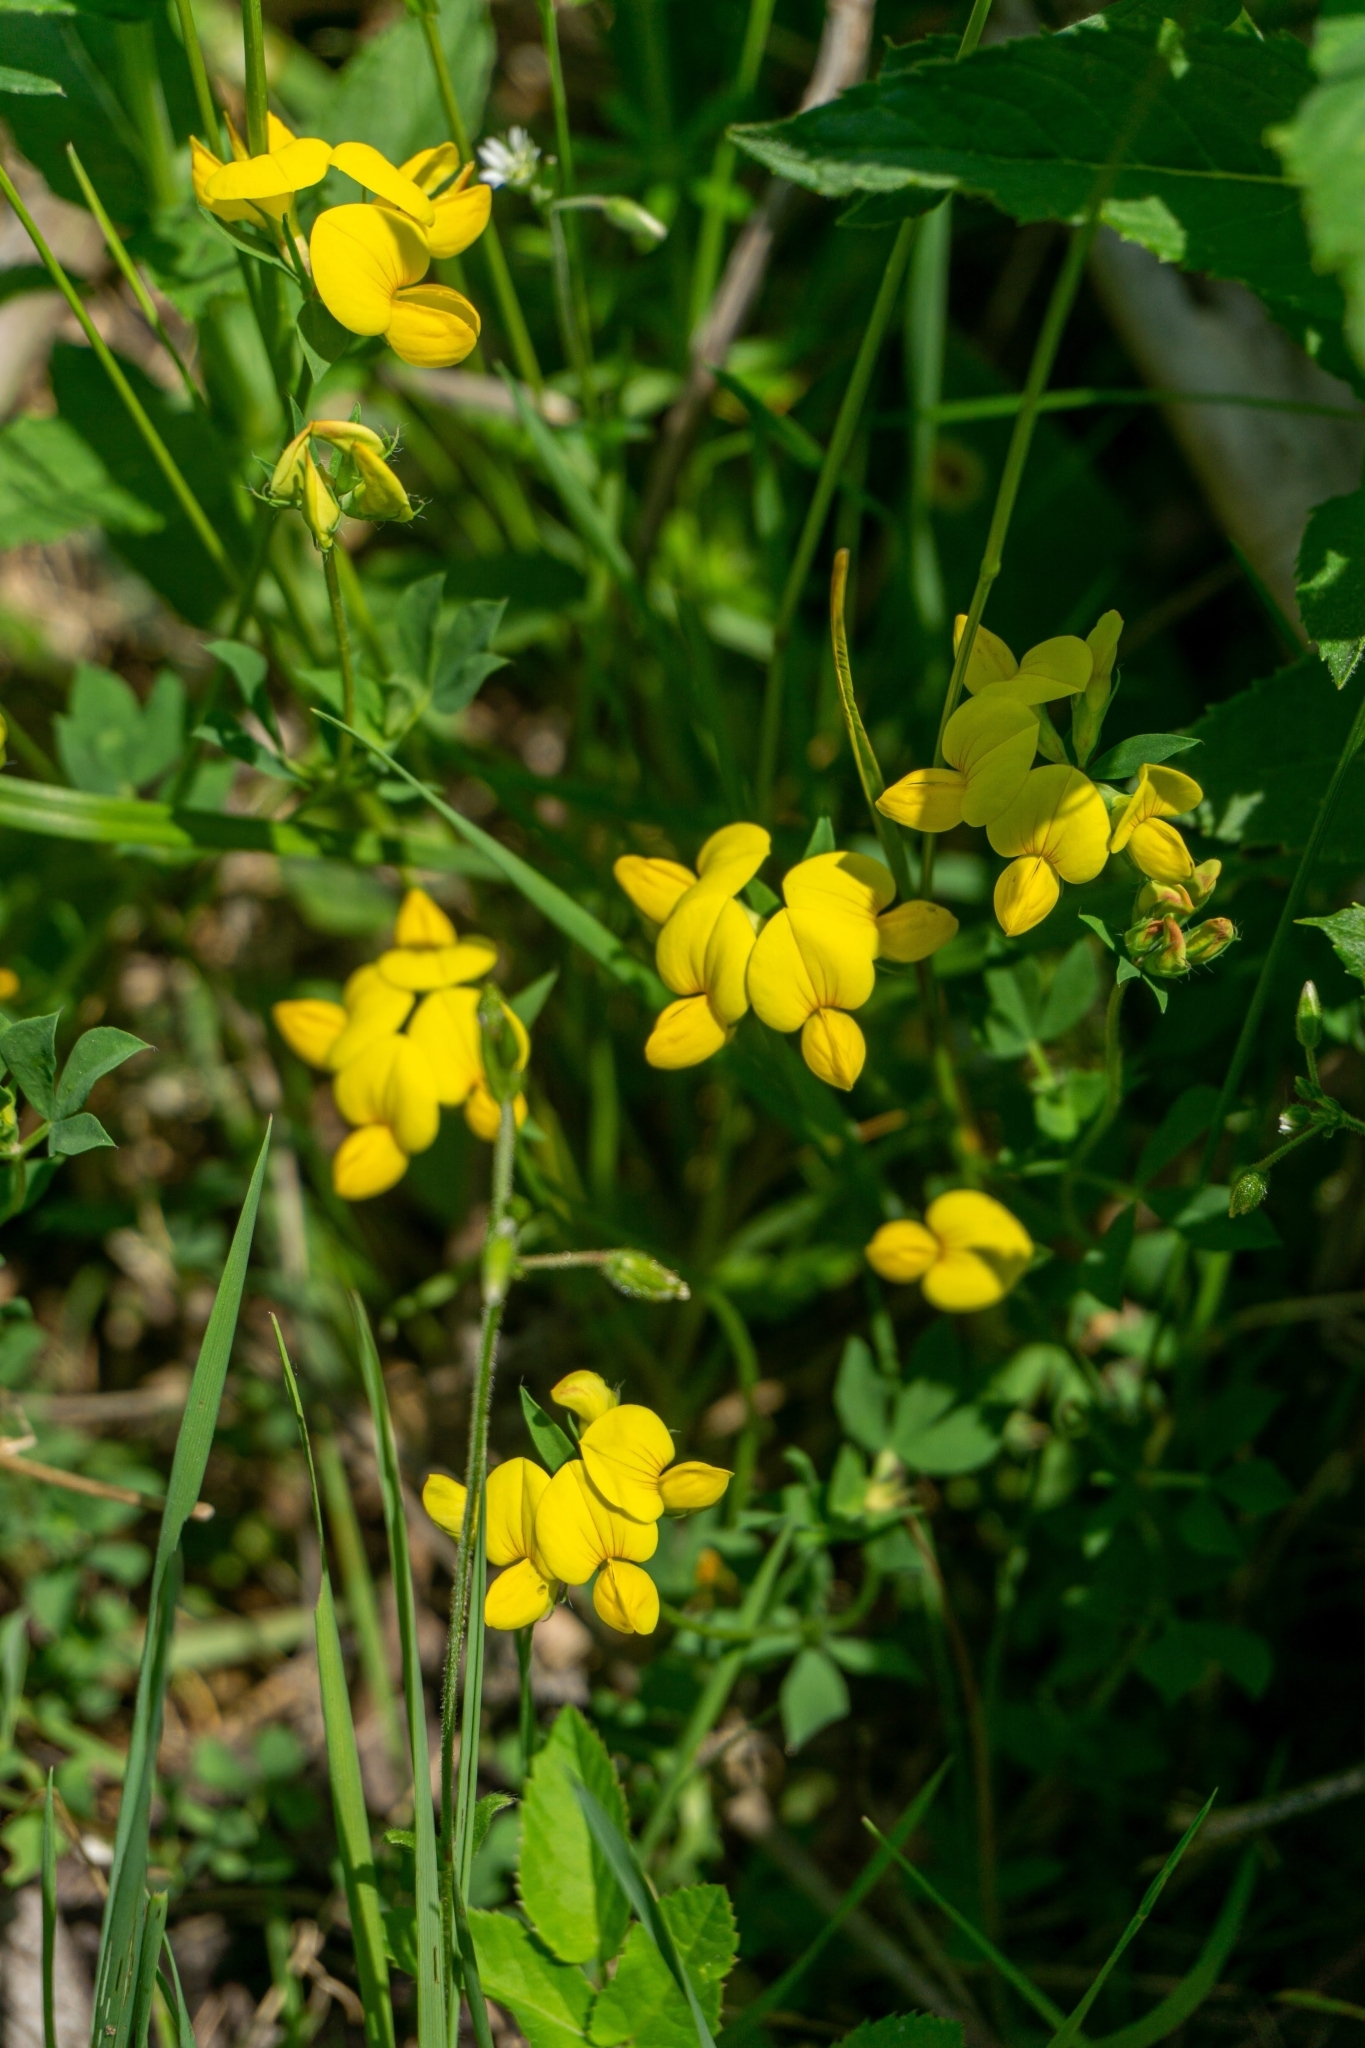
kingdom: Plantae
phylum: Tracheophyta
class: Magnoliopsida
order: Fabales
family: Fabaceae
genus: Lotus
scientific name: Lotus corniculatus
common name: Common bird's-foot-trefoil
